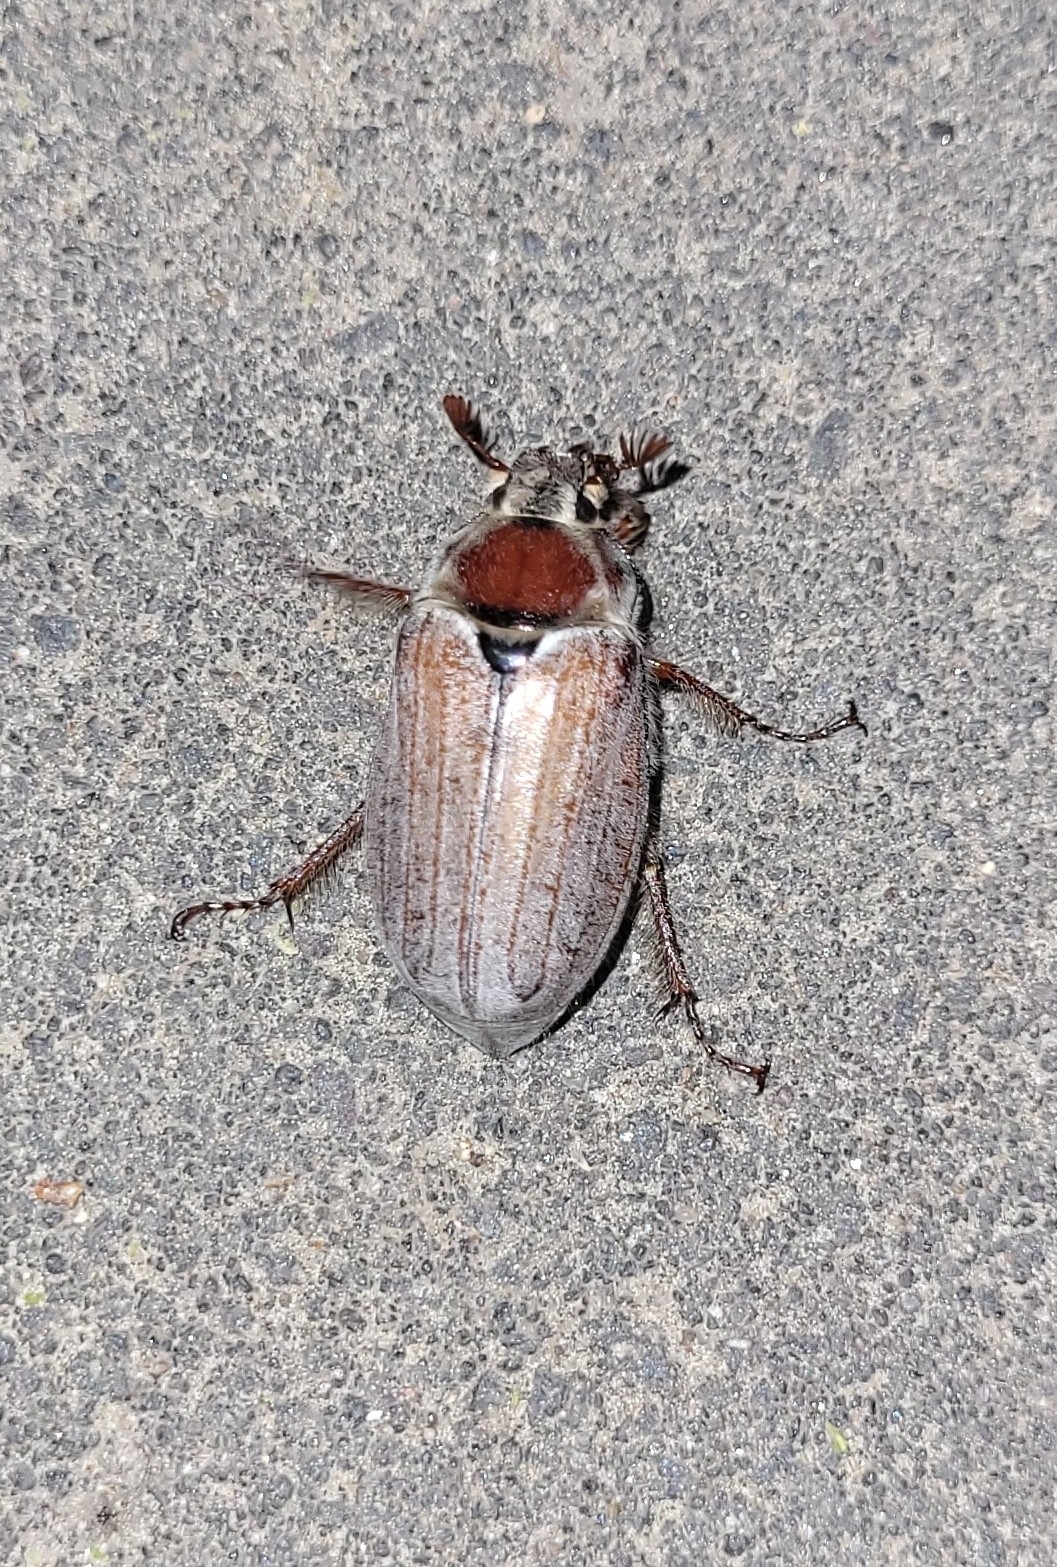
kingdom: Animalia
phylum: Arthropoda
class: Insecta
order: Coleoptera
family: Scarabaeidae
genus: Melolontha
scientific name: Melolontha hippocastani
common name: Chestnut cockchafer
